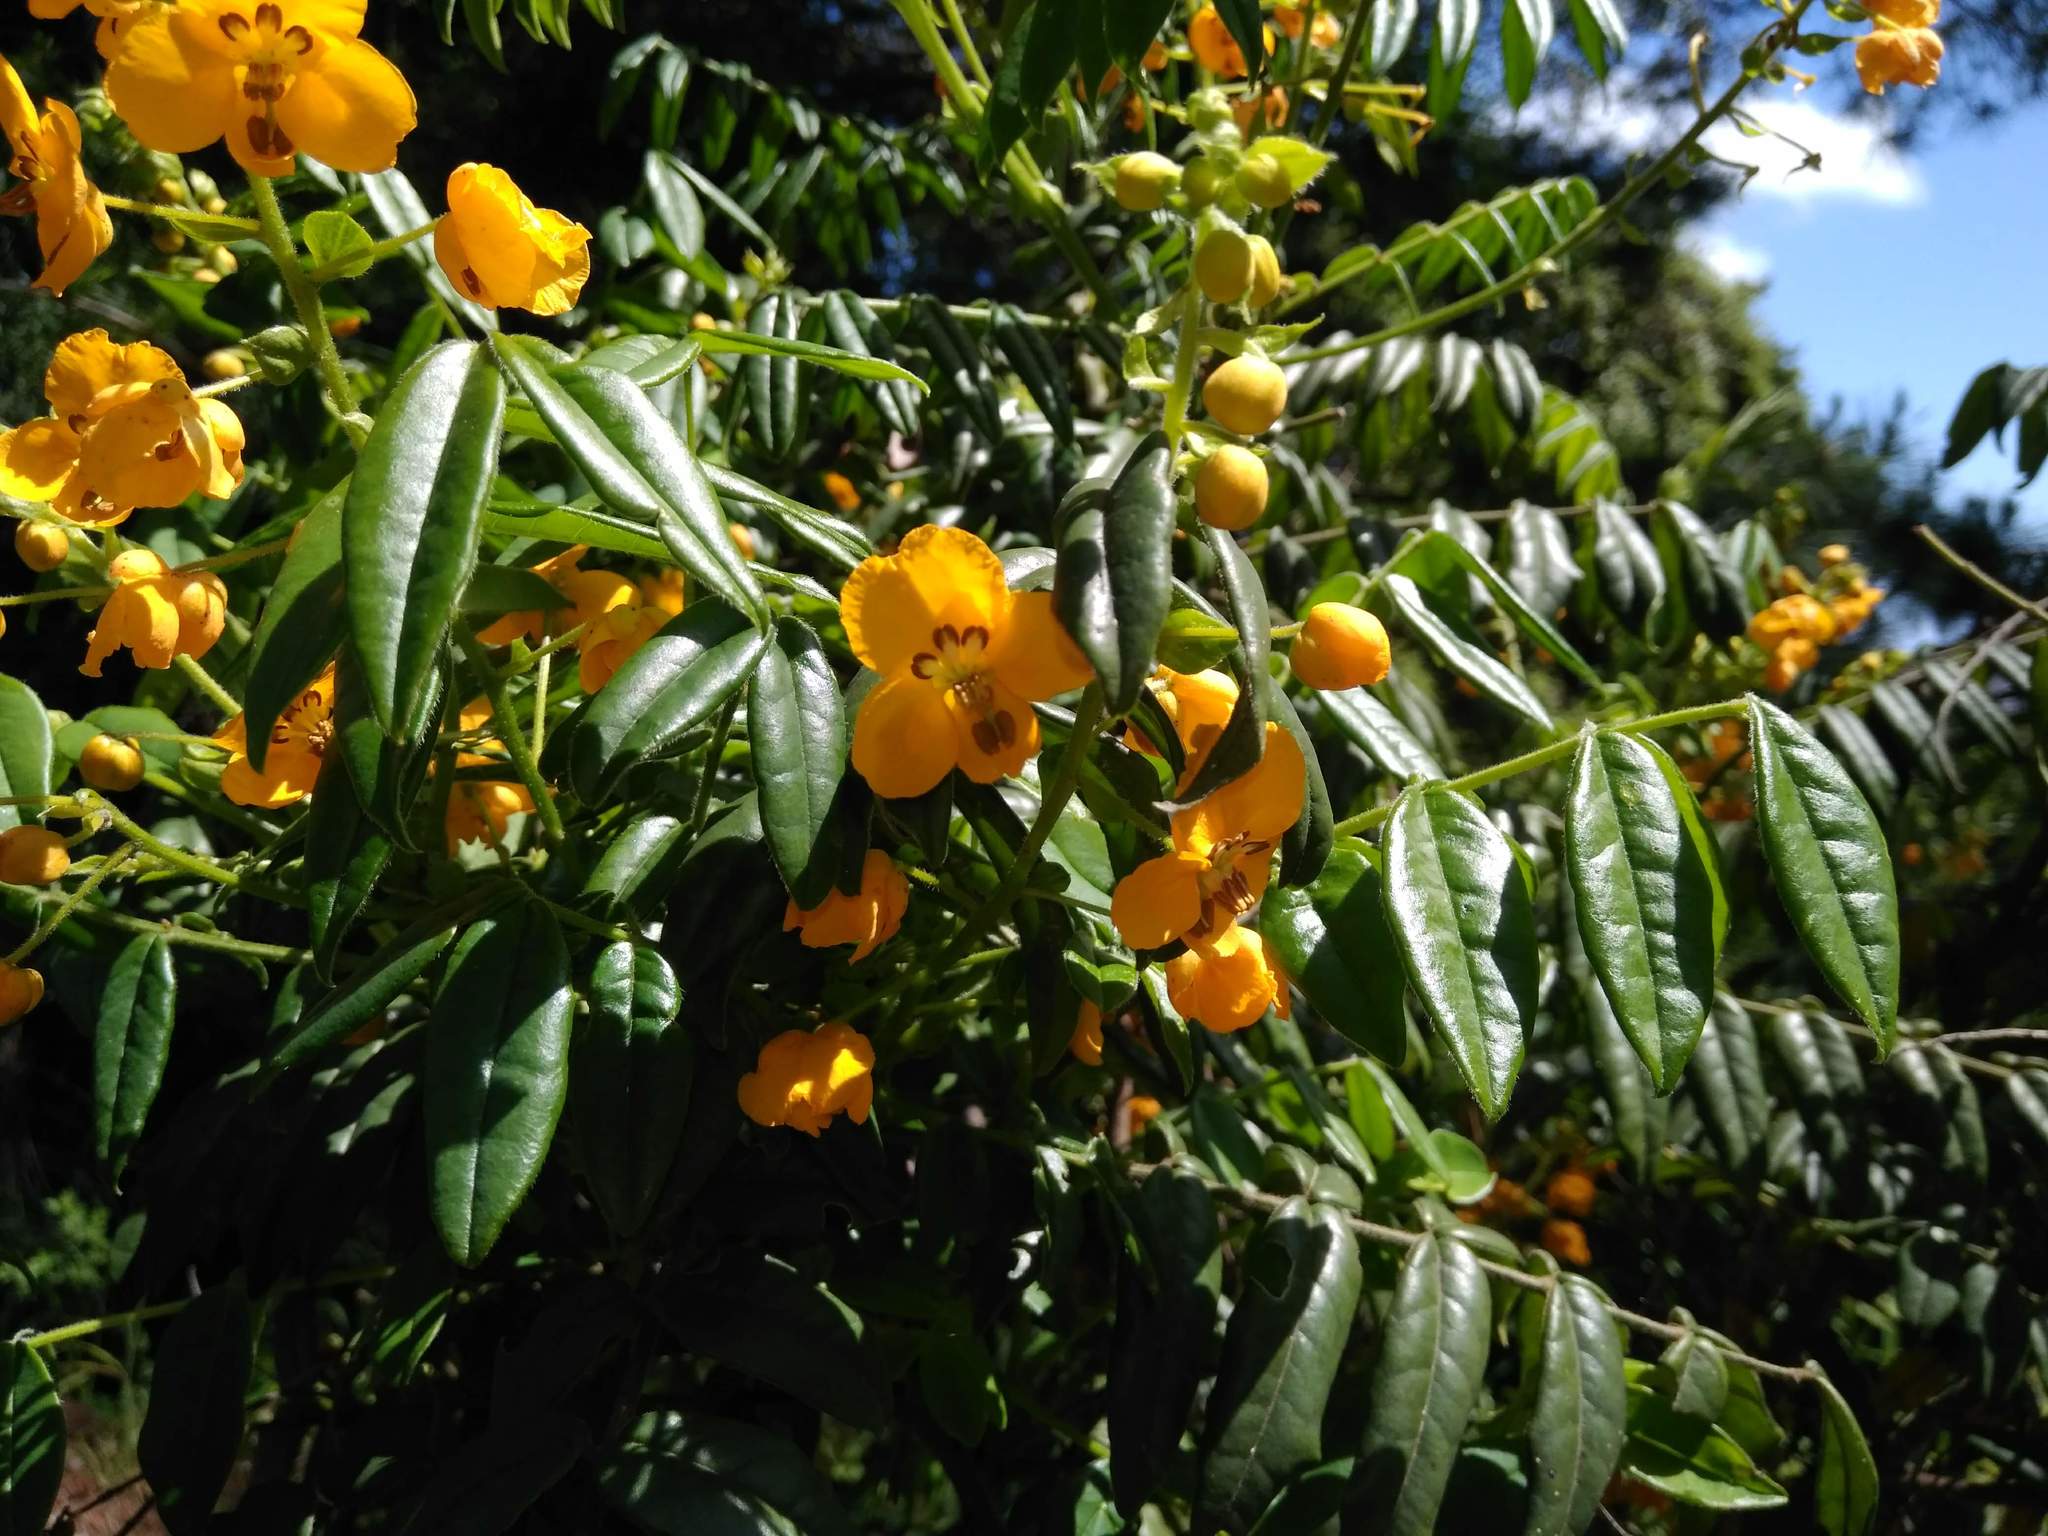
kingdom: Plantae
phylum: Tracheophyta
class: Magnoliopsida
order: Fabales
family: Fabaceae
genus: Senna
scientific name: Senna stipulacea
